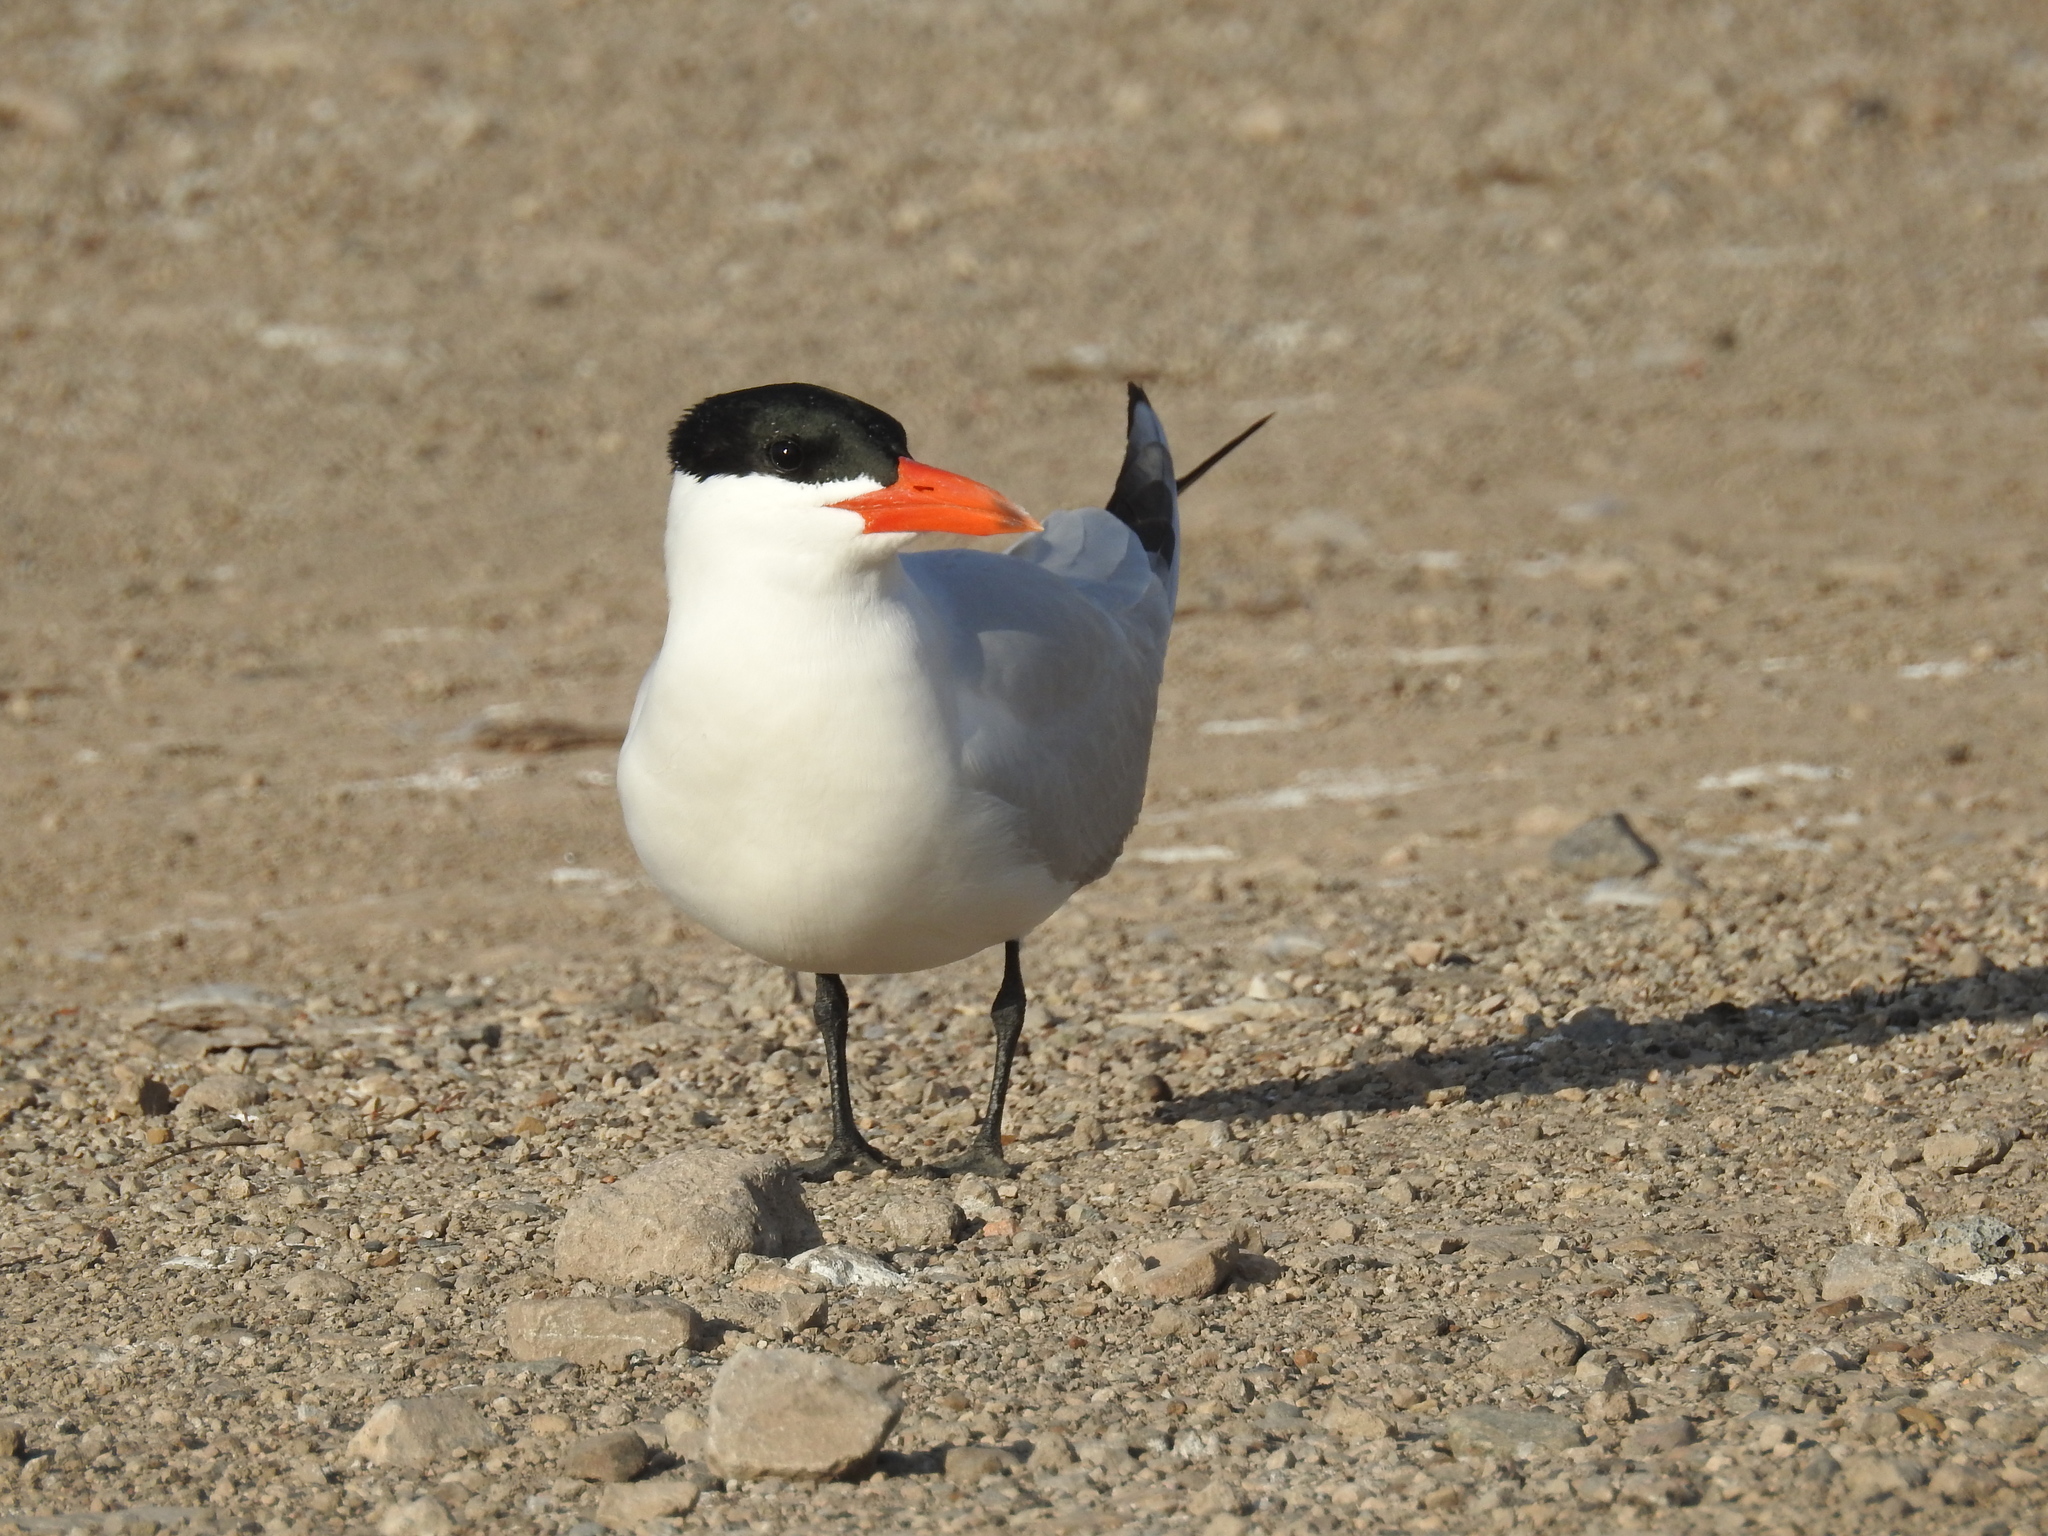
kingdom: Animalia
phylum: Chordata
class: Aves
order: Charadriiformes
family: Laridae
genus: Hydroprogne
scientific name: Hydroprogne caspia
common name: Caspian tern
